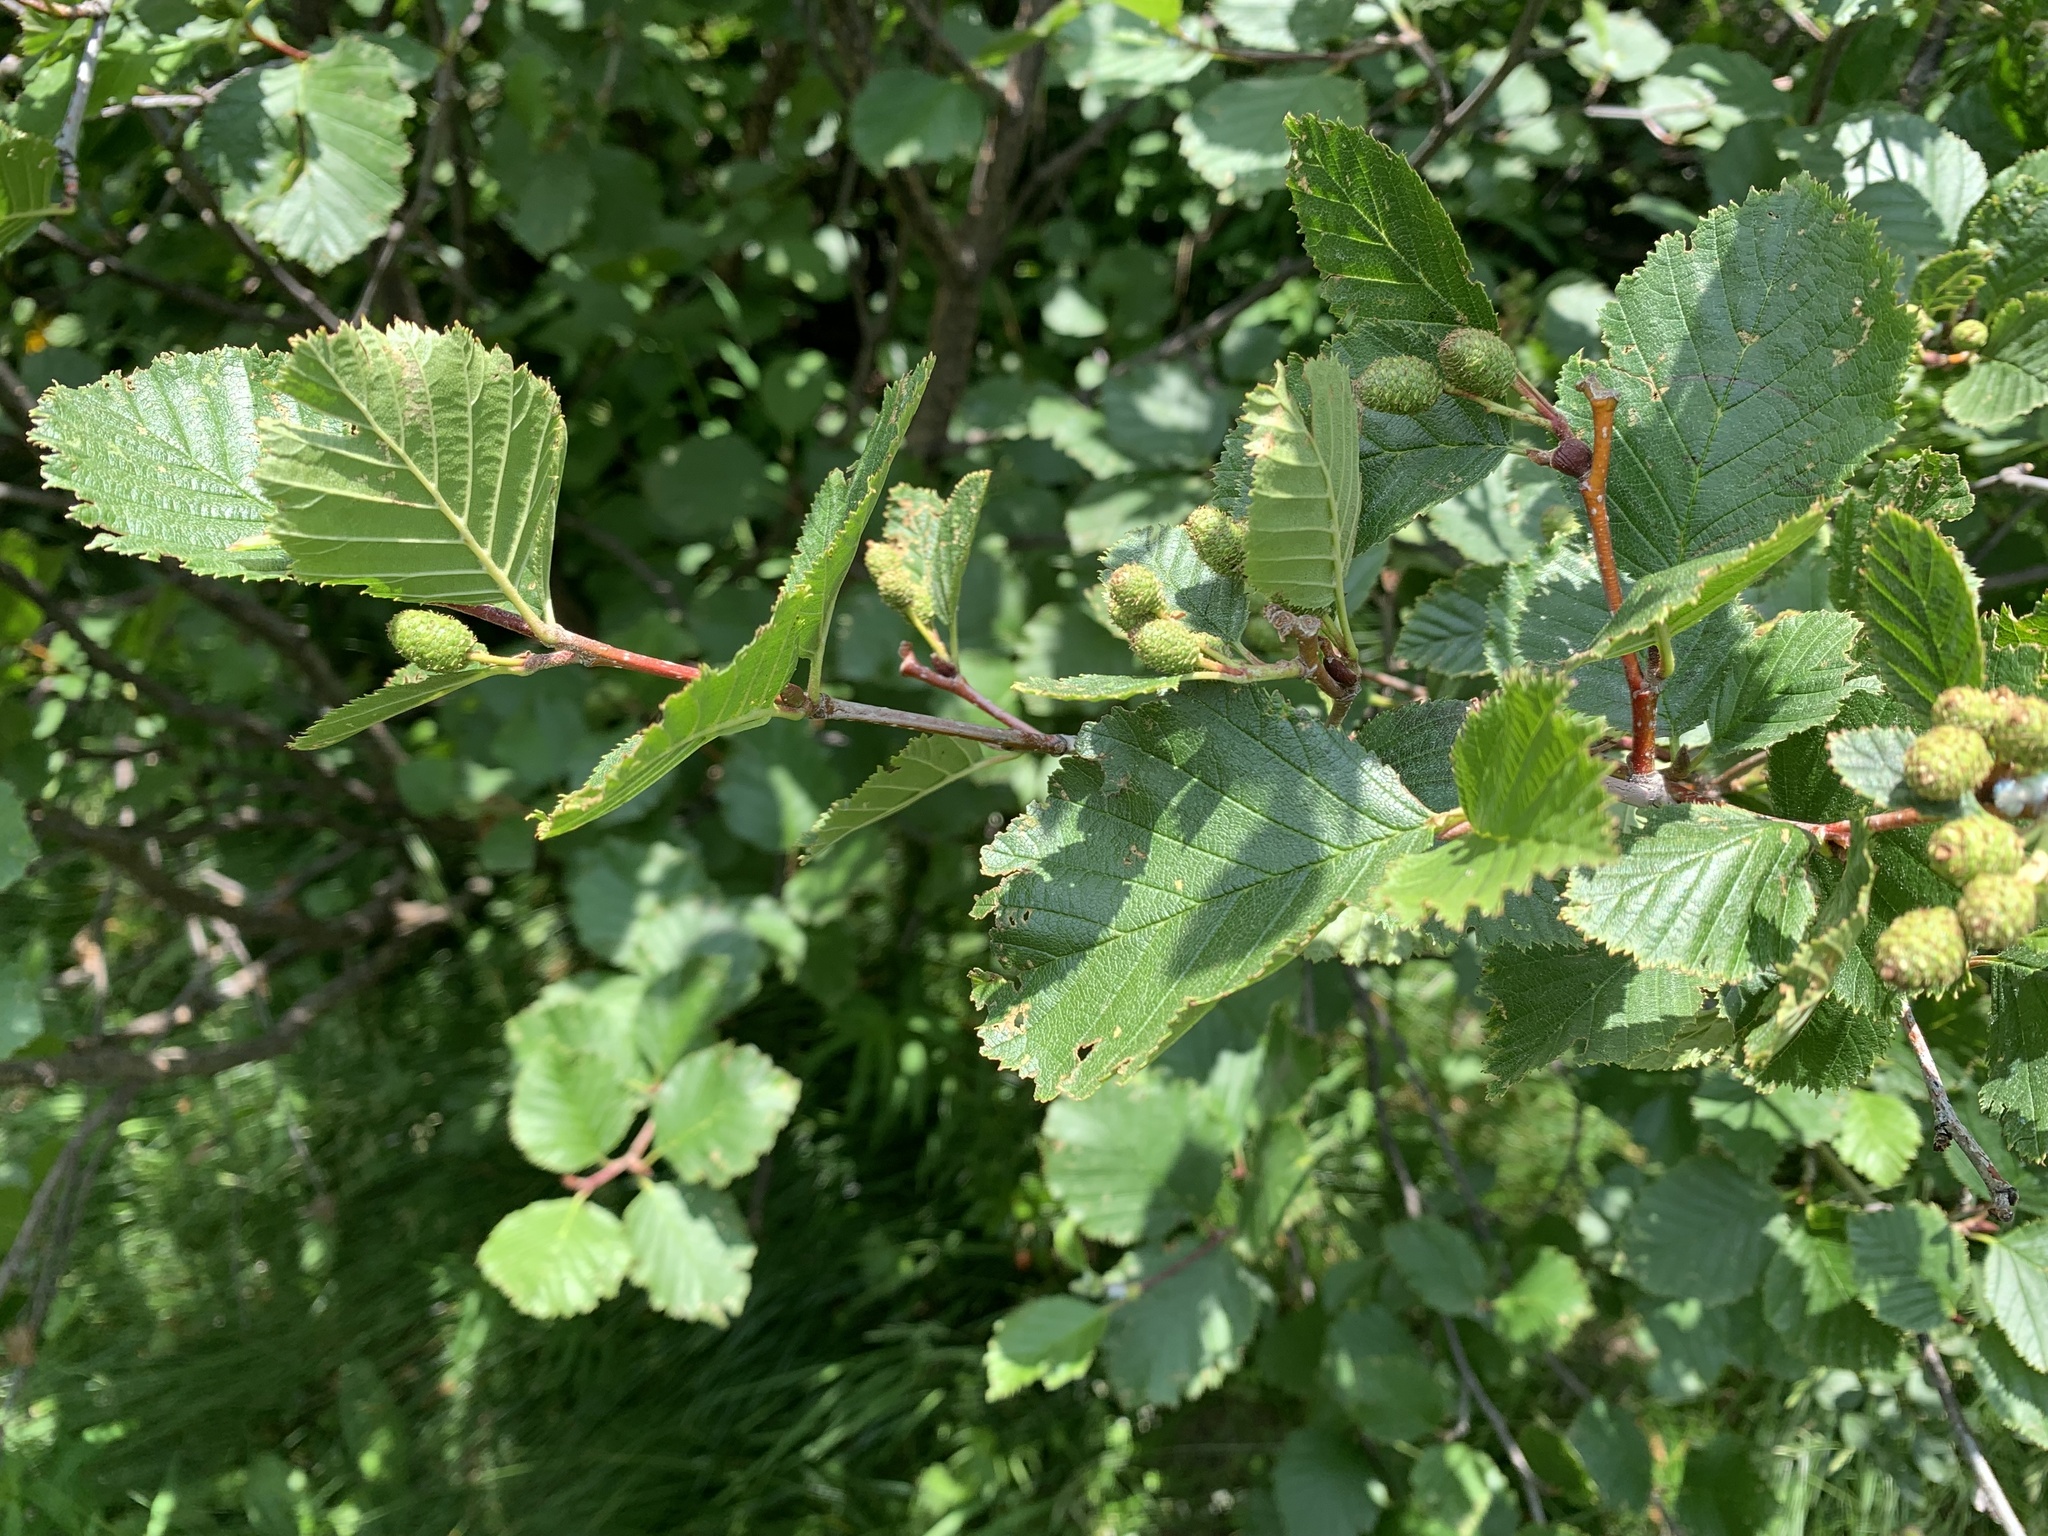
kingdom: Plantae
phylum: Tracheophyta
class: Magnoliopsida
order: Fagales
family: Betulaceae
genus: Alnus
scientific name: Alnus alnobetula
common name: Green alder
